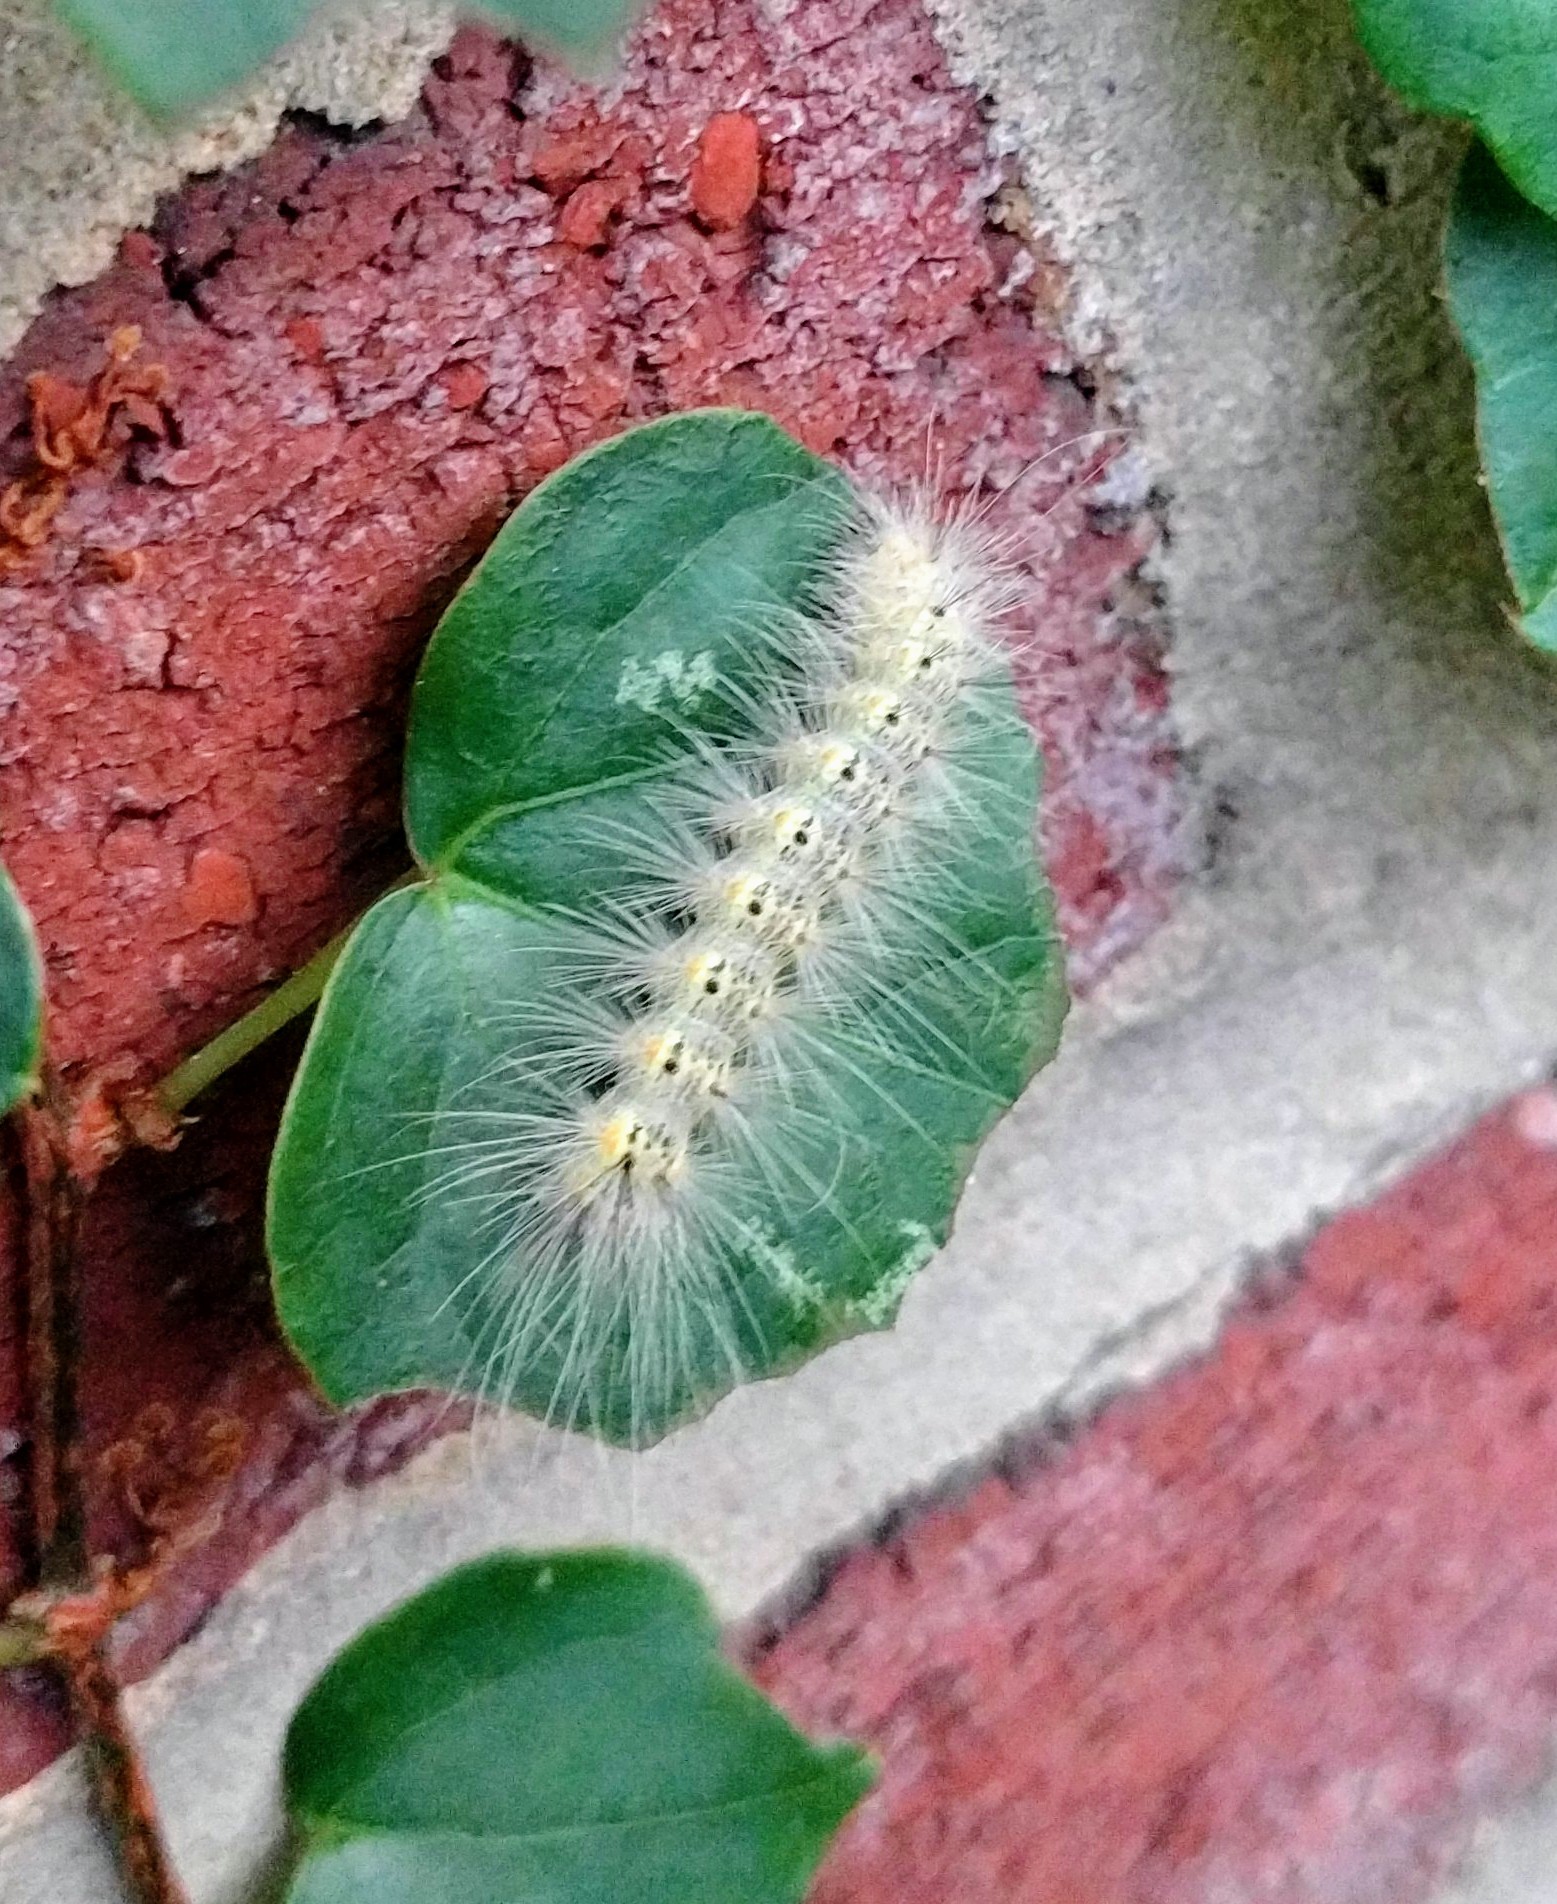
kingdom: Animalia
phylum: Arthropoda
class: Insecta
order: Lepidoptera
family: Erebidae
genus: Hyphantria
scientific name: Hyphantria cunea
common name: American white moth
